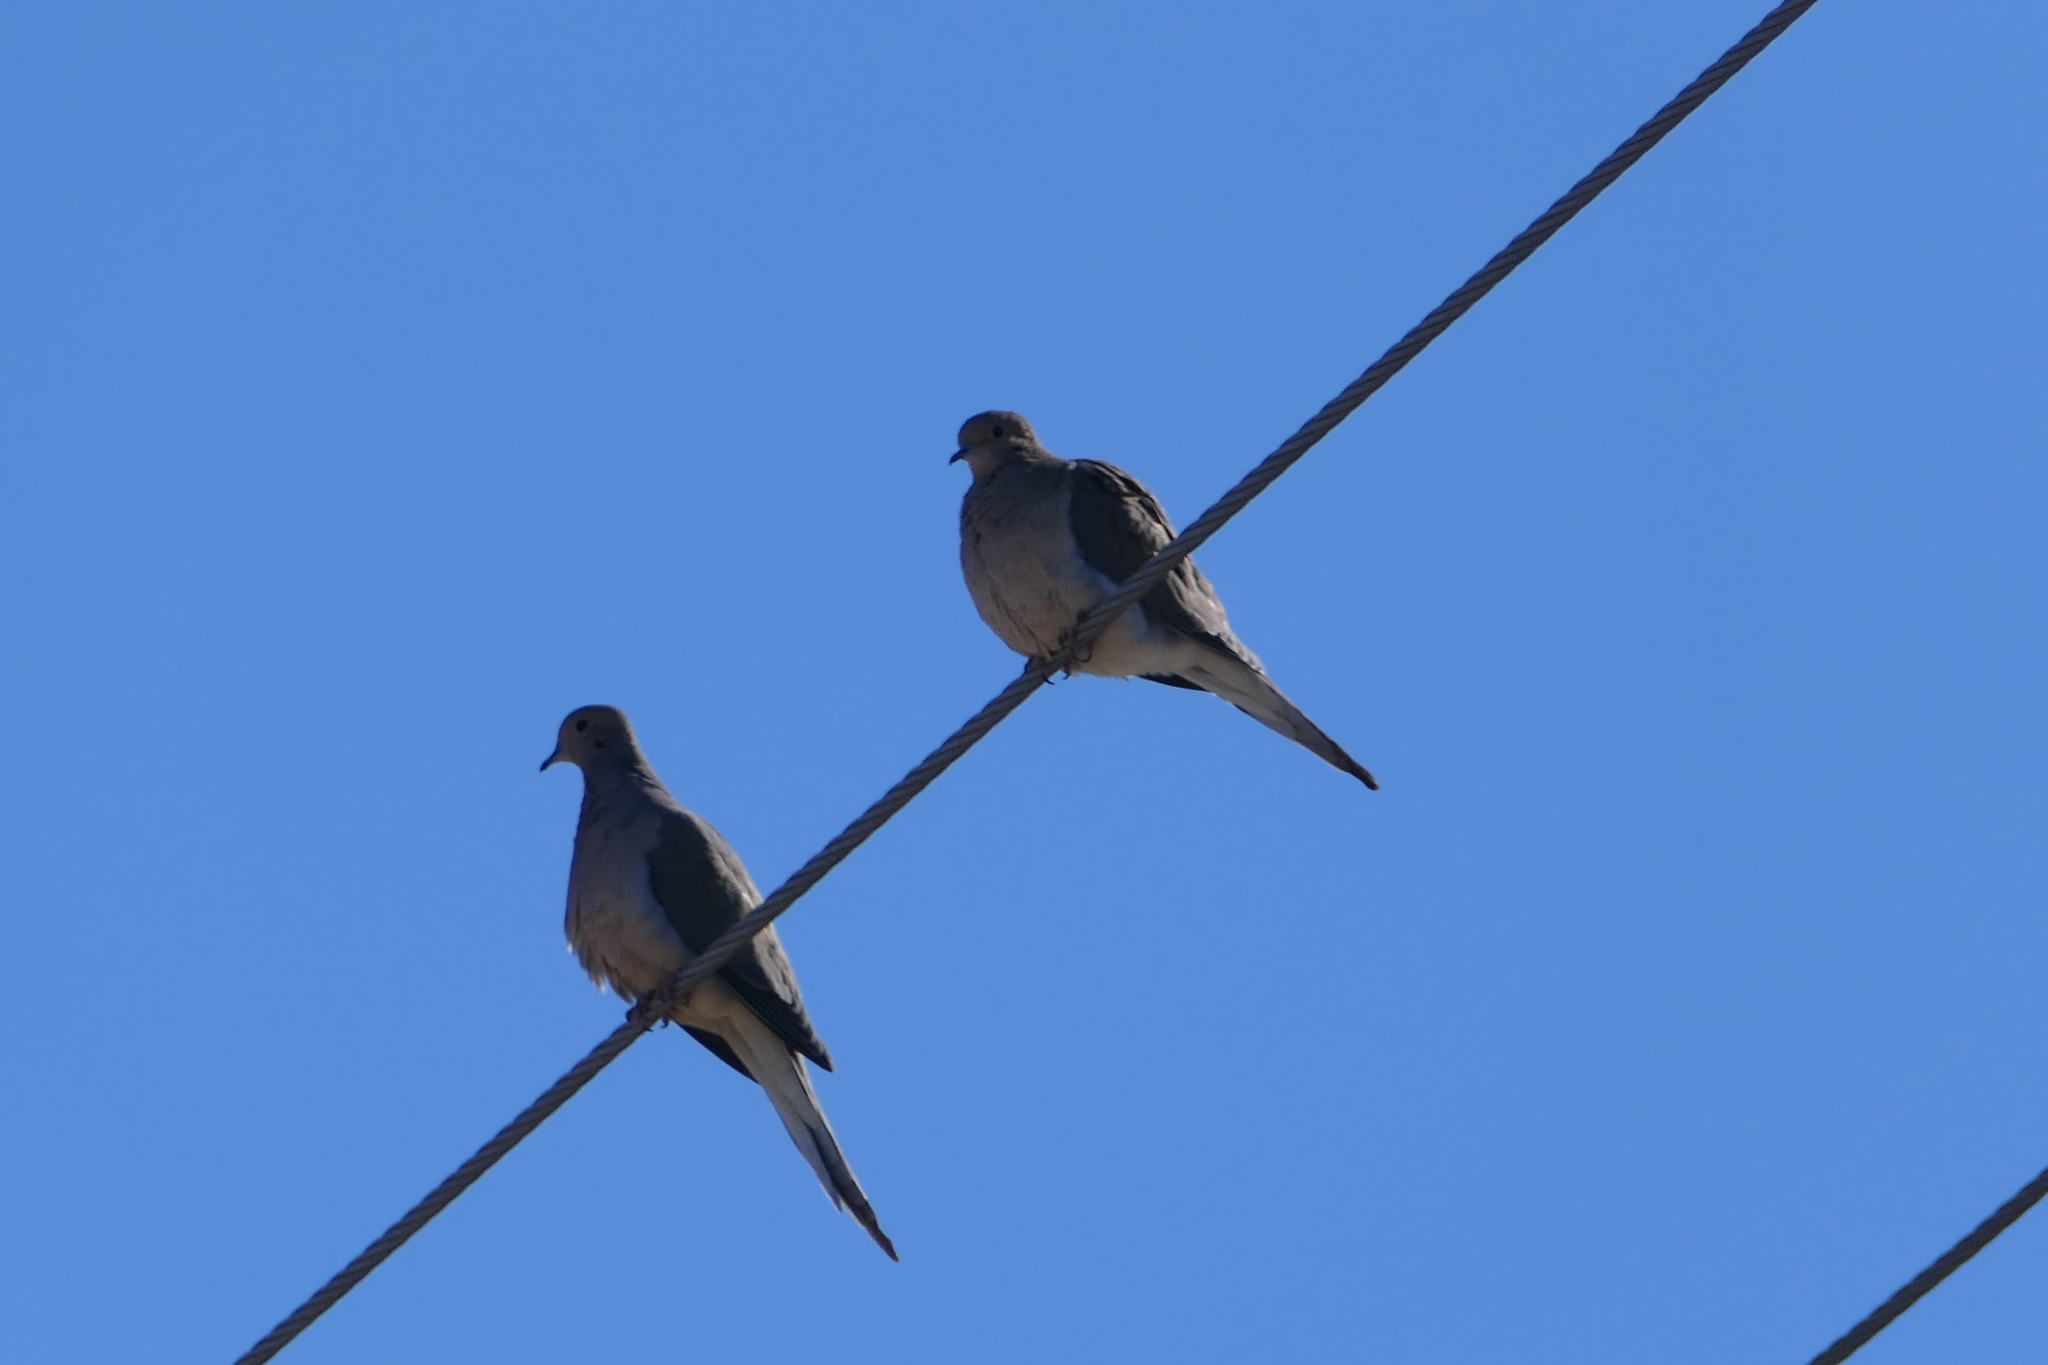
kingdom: Animalia
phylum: Chordata
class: Aves
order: Columbiformes
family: Columbidae
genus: Zenaida
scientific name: Zenaida macroura
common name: Mourning dove
